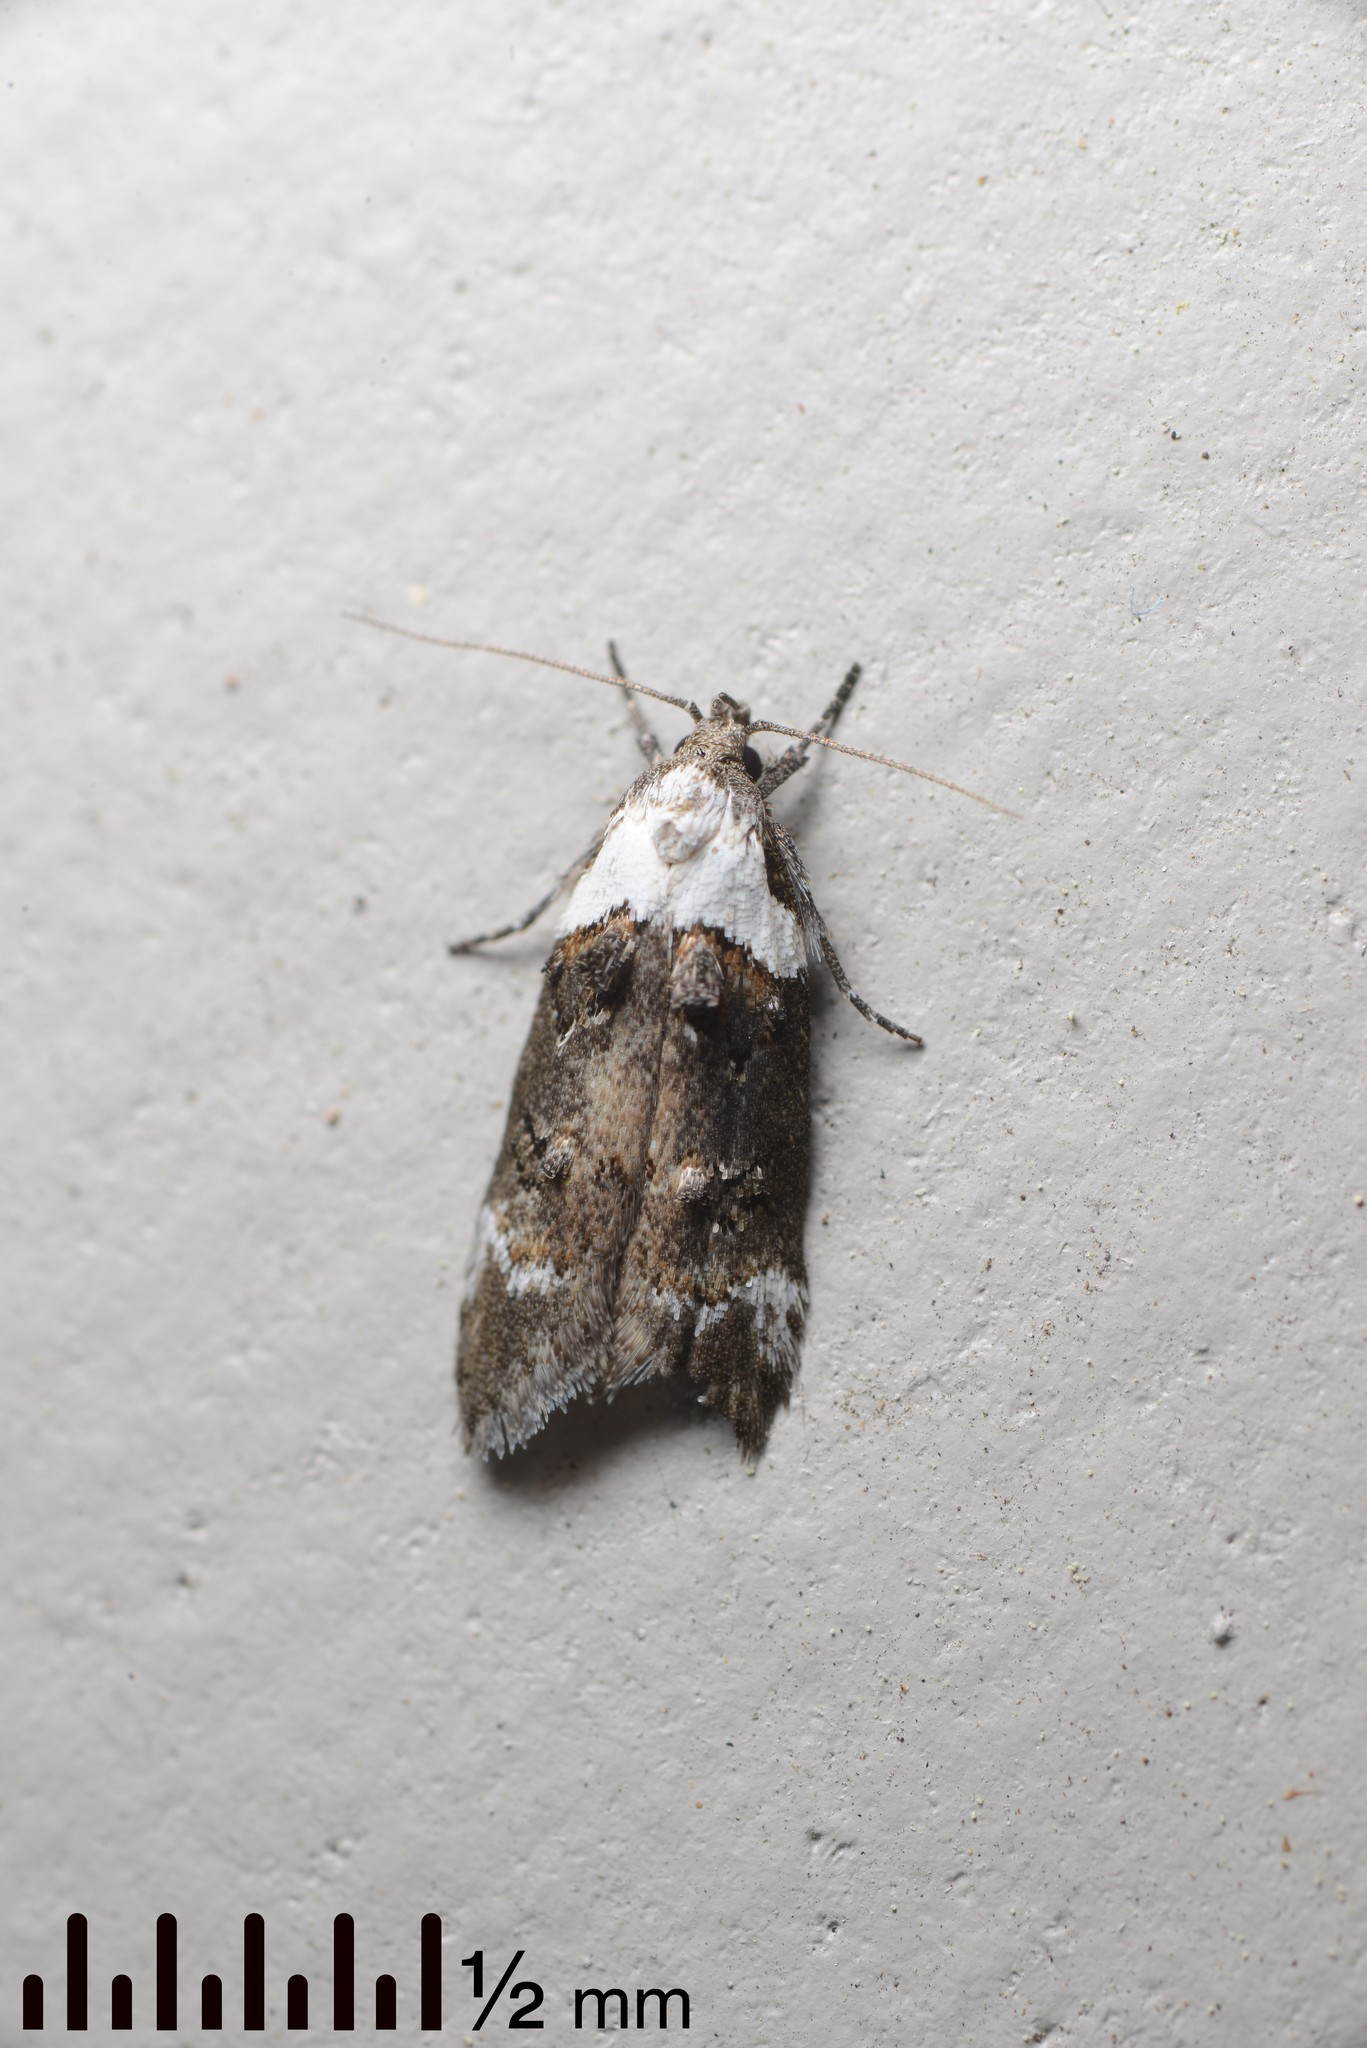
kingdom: Animalia
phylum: Arthropoda
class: Insecta
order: Lepidoptera
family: Oecophoridae
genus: Trachypepla
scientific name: Trachypepla conspicuella
